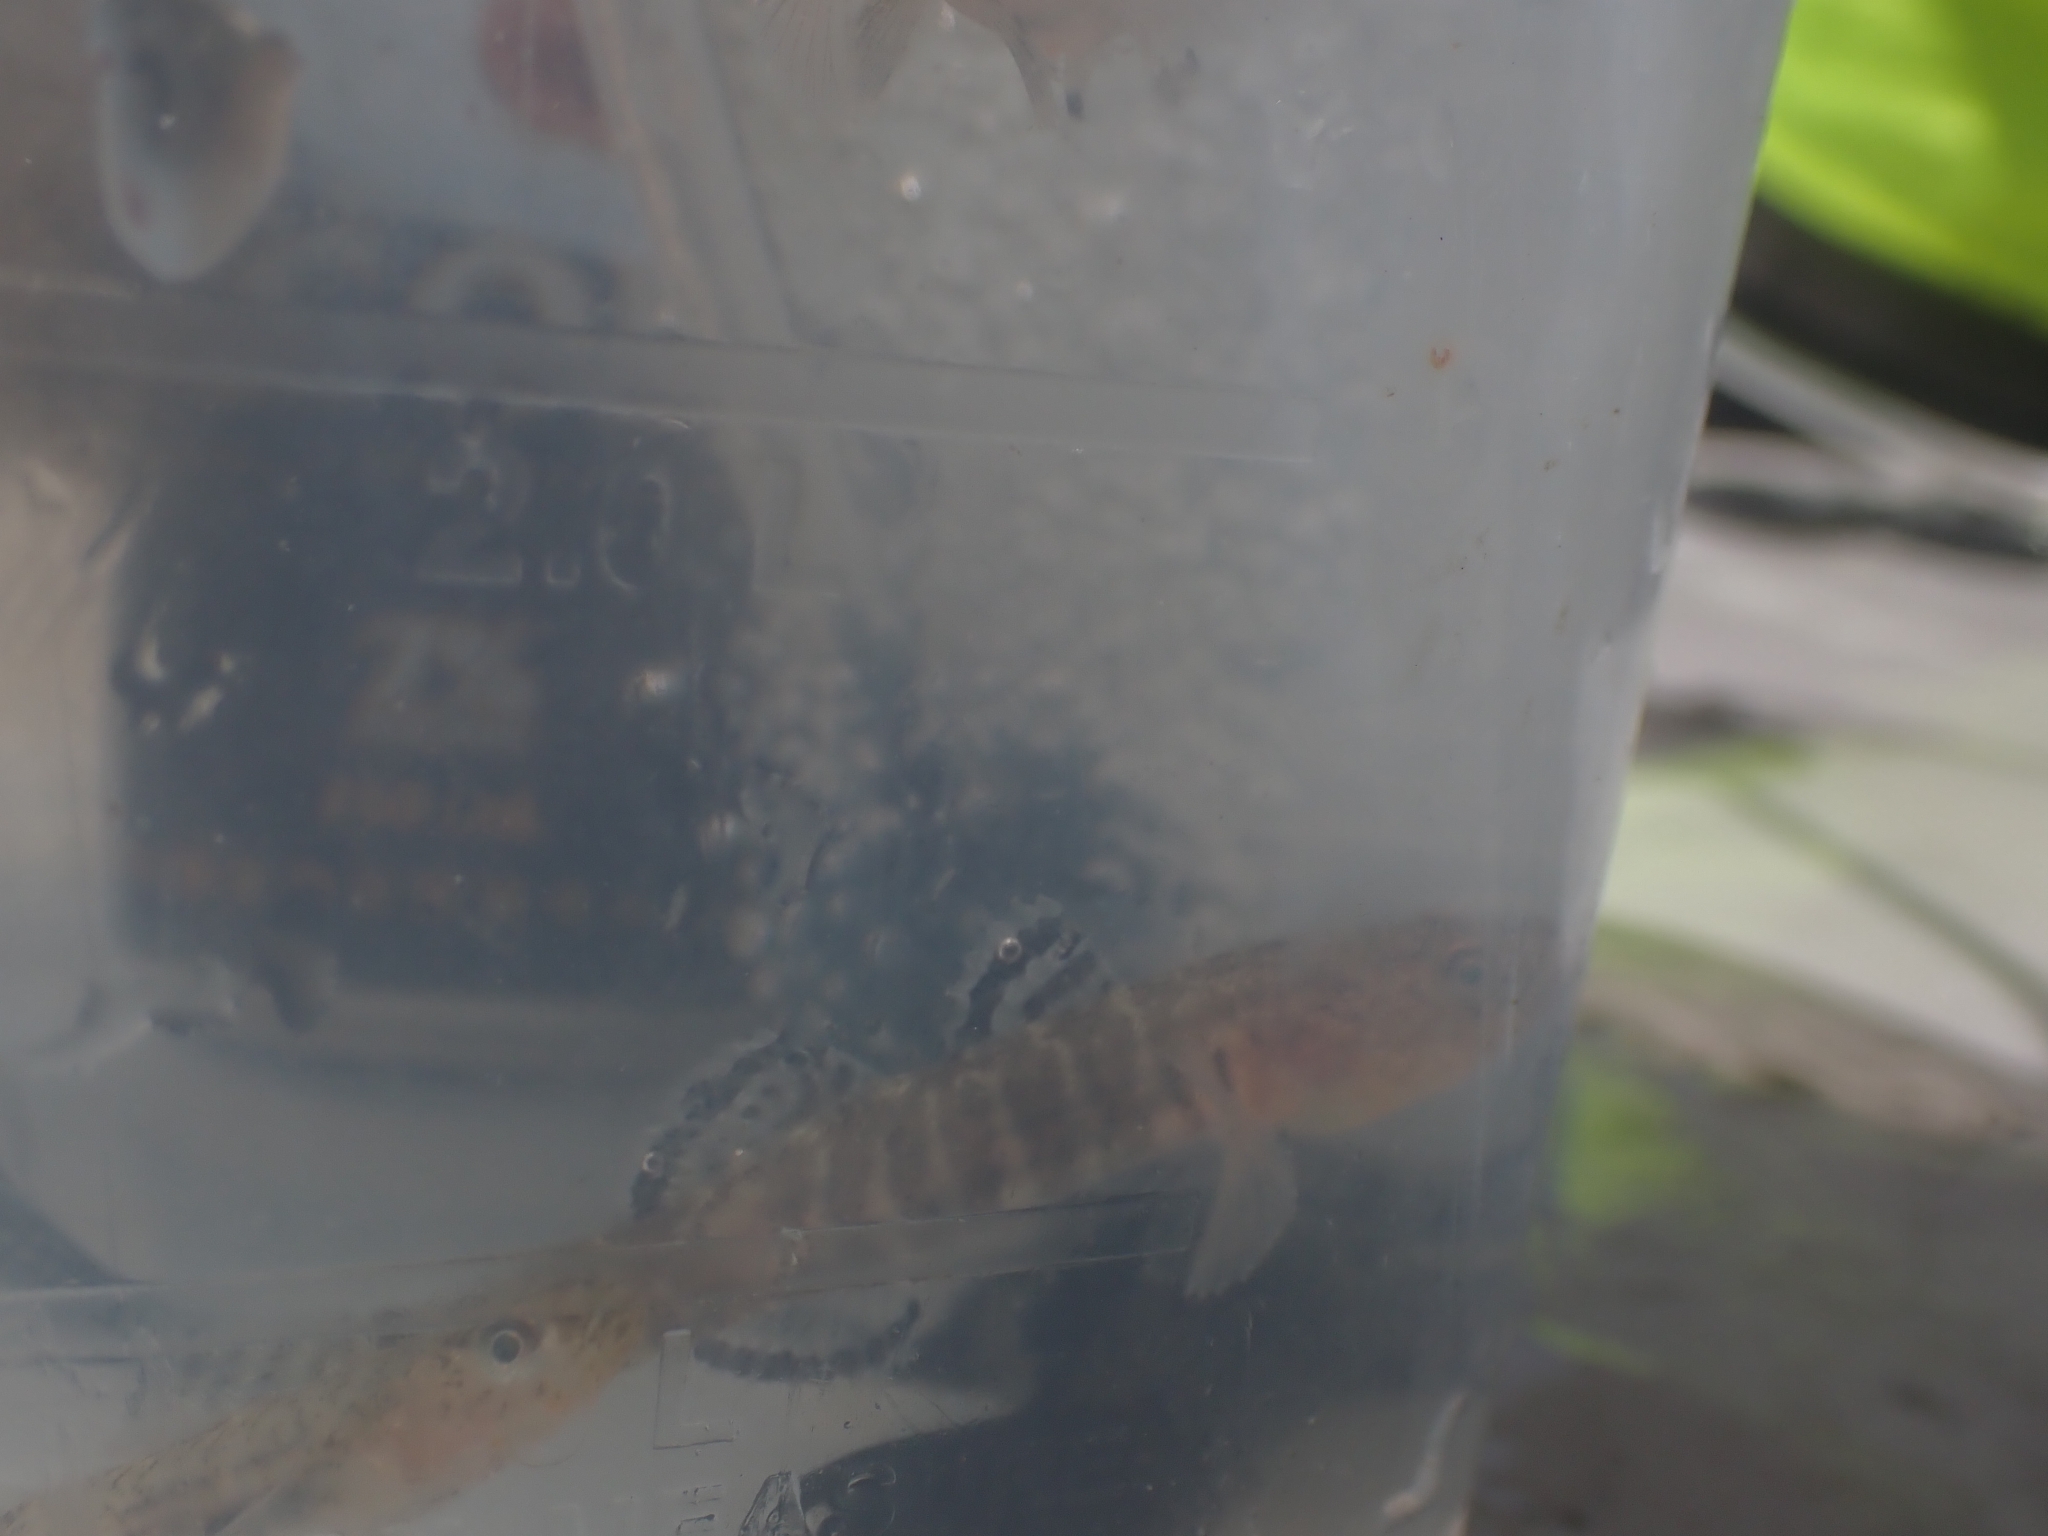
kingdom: Animalia
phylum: Chordata
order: Perciformes
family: Thalasseleotrididae
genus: Grahamichthys
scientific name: Grahamichthys radiata
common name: Graham's gudgeon
